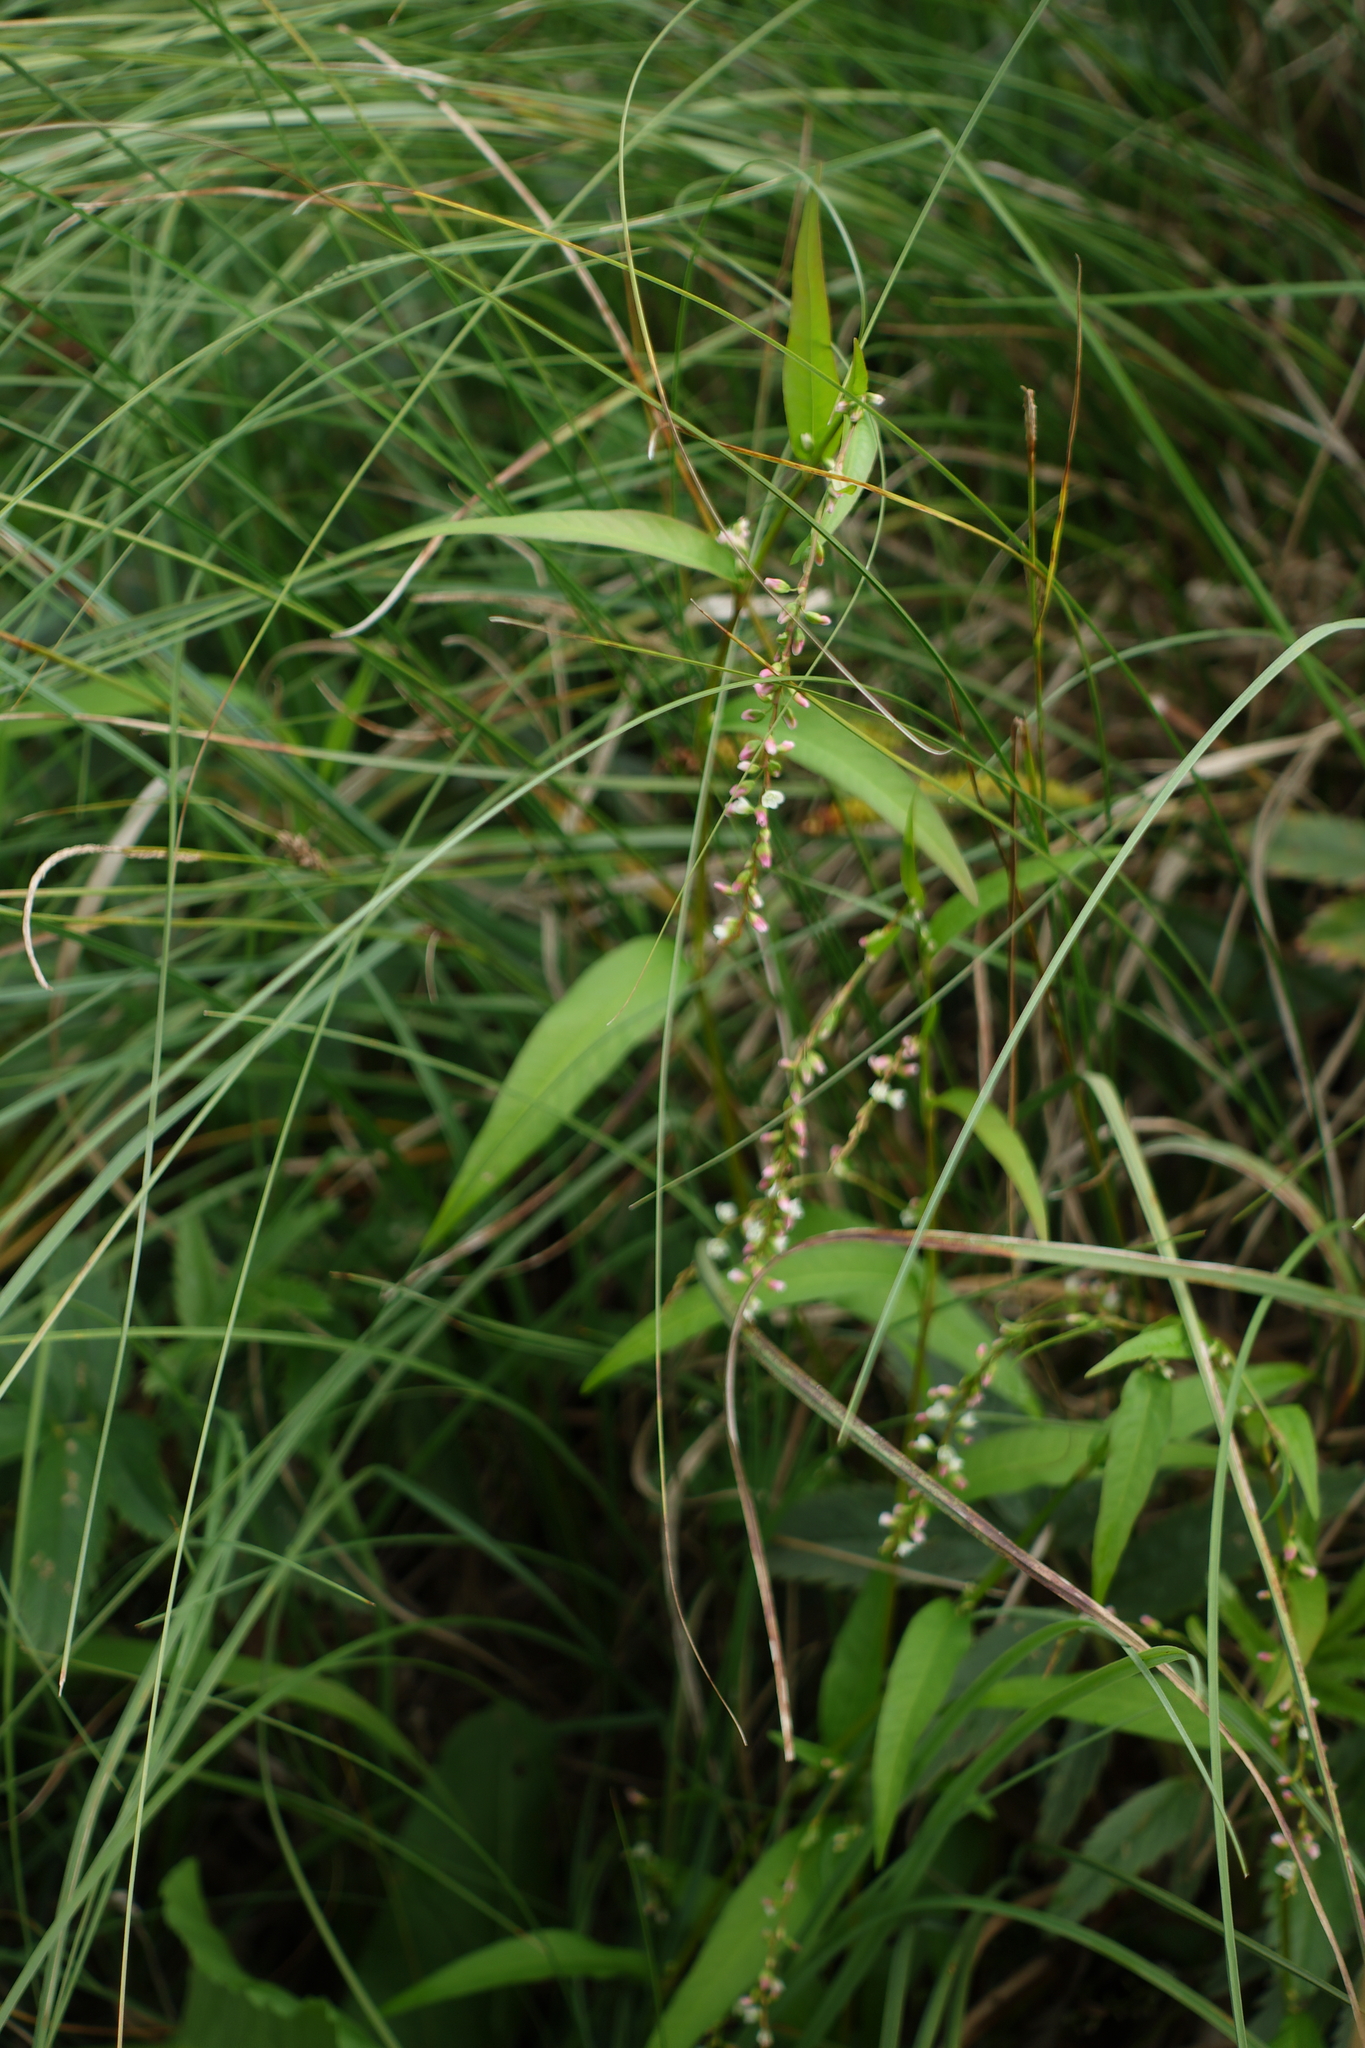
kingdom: Plantae
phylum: Tracheophyta
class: Magnoliopsida
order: Caryophyllales
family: Polygonaceae
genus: Persicaria
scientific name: Persicaria hydropiper
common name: Water-pepper
